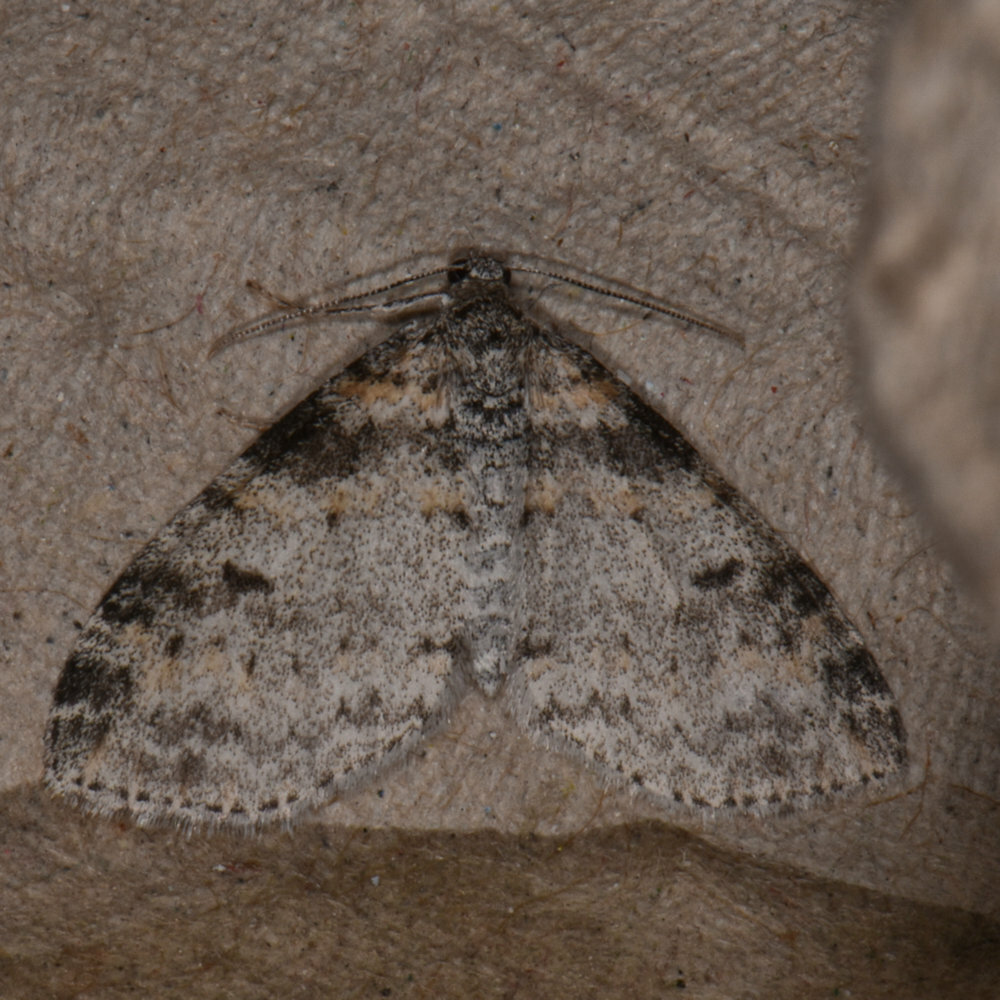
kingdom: Animalia
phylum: Arthropoda
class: Insecta
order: Lepidoptera
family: Geometridae
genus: Lobophora
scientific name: Lobophora nivigerata
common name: Powdered bigwing
